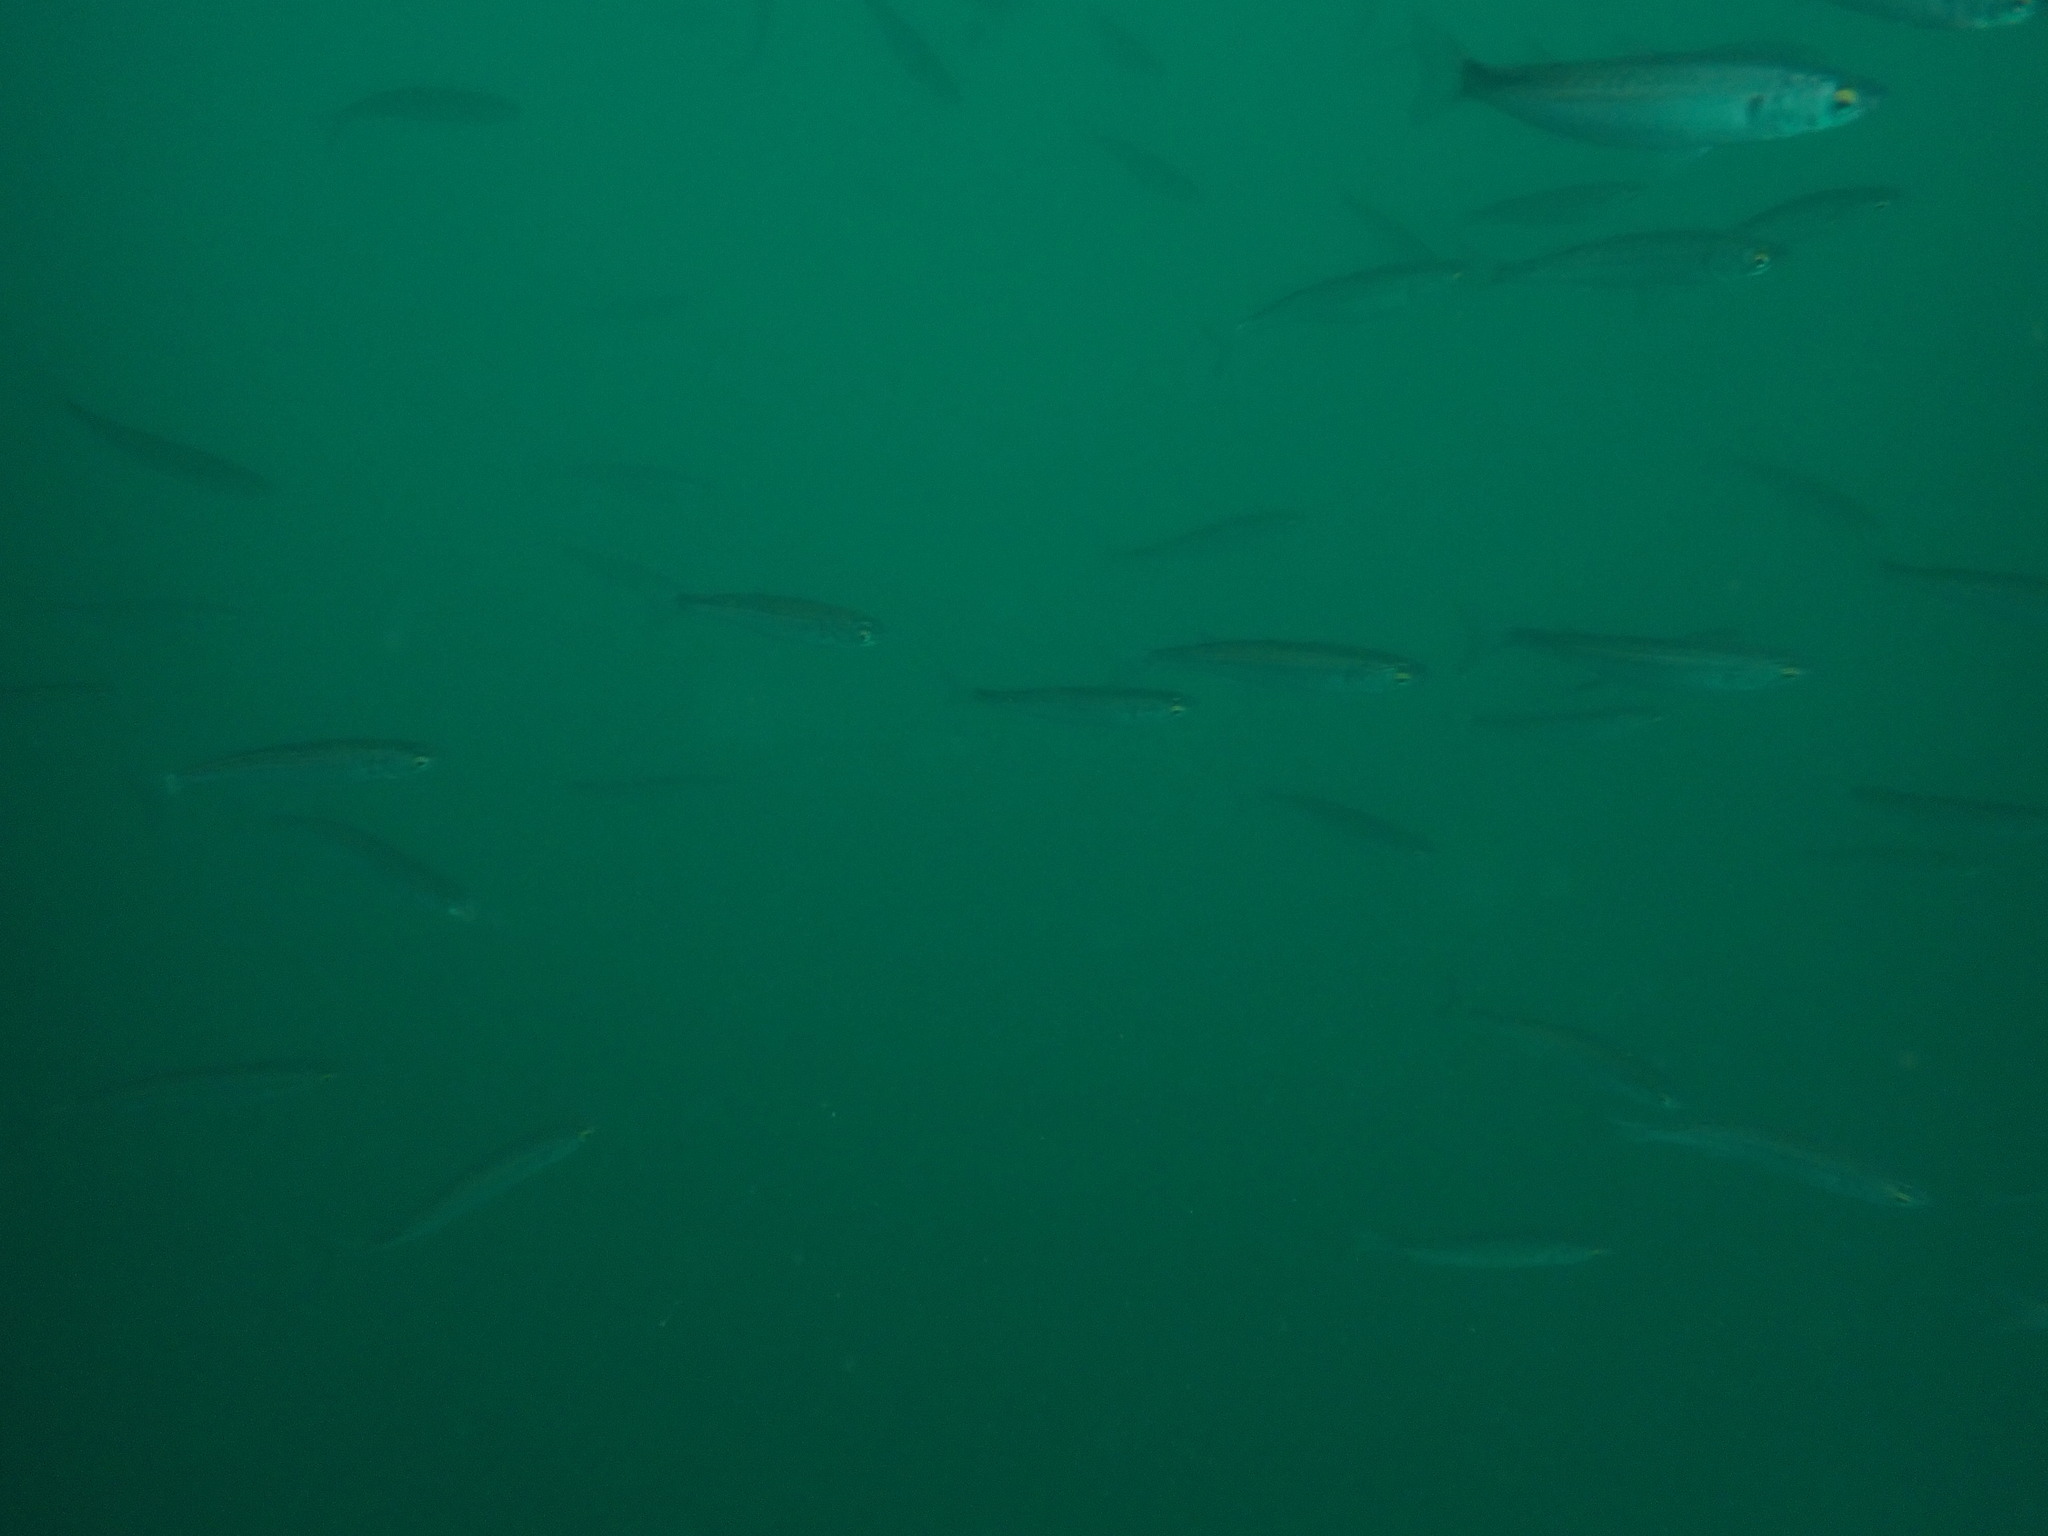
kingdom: Animalia
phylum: Chordata
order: Mugiliformes
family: Mugilidae
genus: Aldrichetta
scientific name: Aldrichetta forsteri
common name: Yellow-eye mullet
